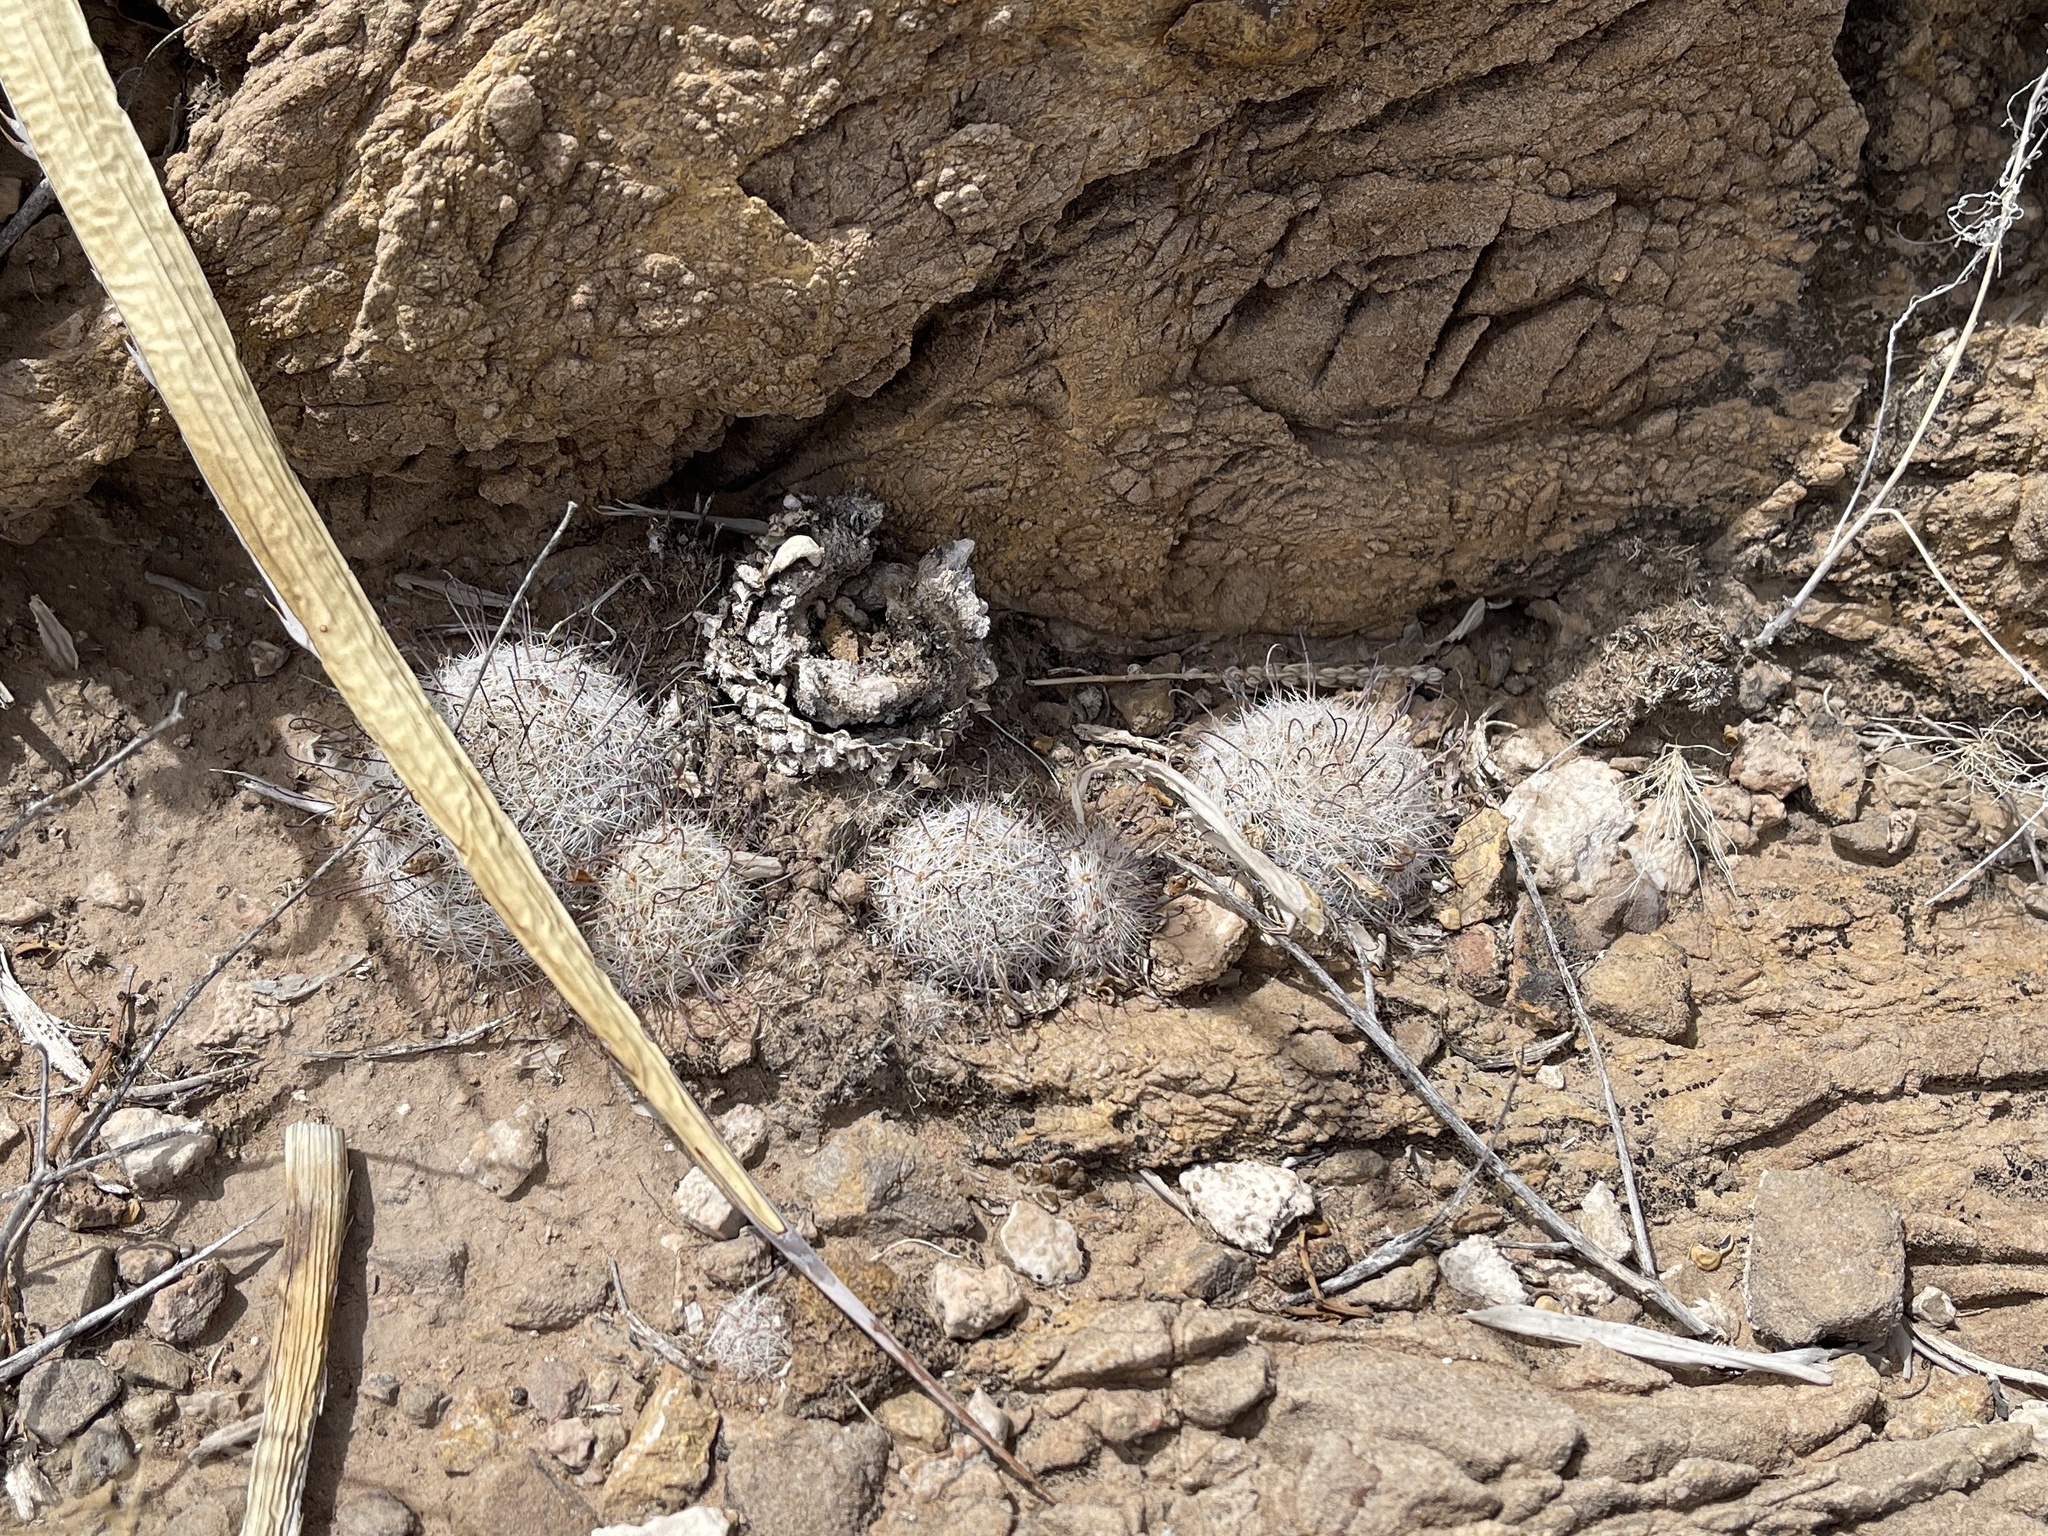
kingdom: Plantae
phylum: Tracheophyta
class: Magnoliopsida
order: Caryophyllales
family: Cactaceae
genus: Cochemiea
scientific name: Cochemiea grahamii
